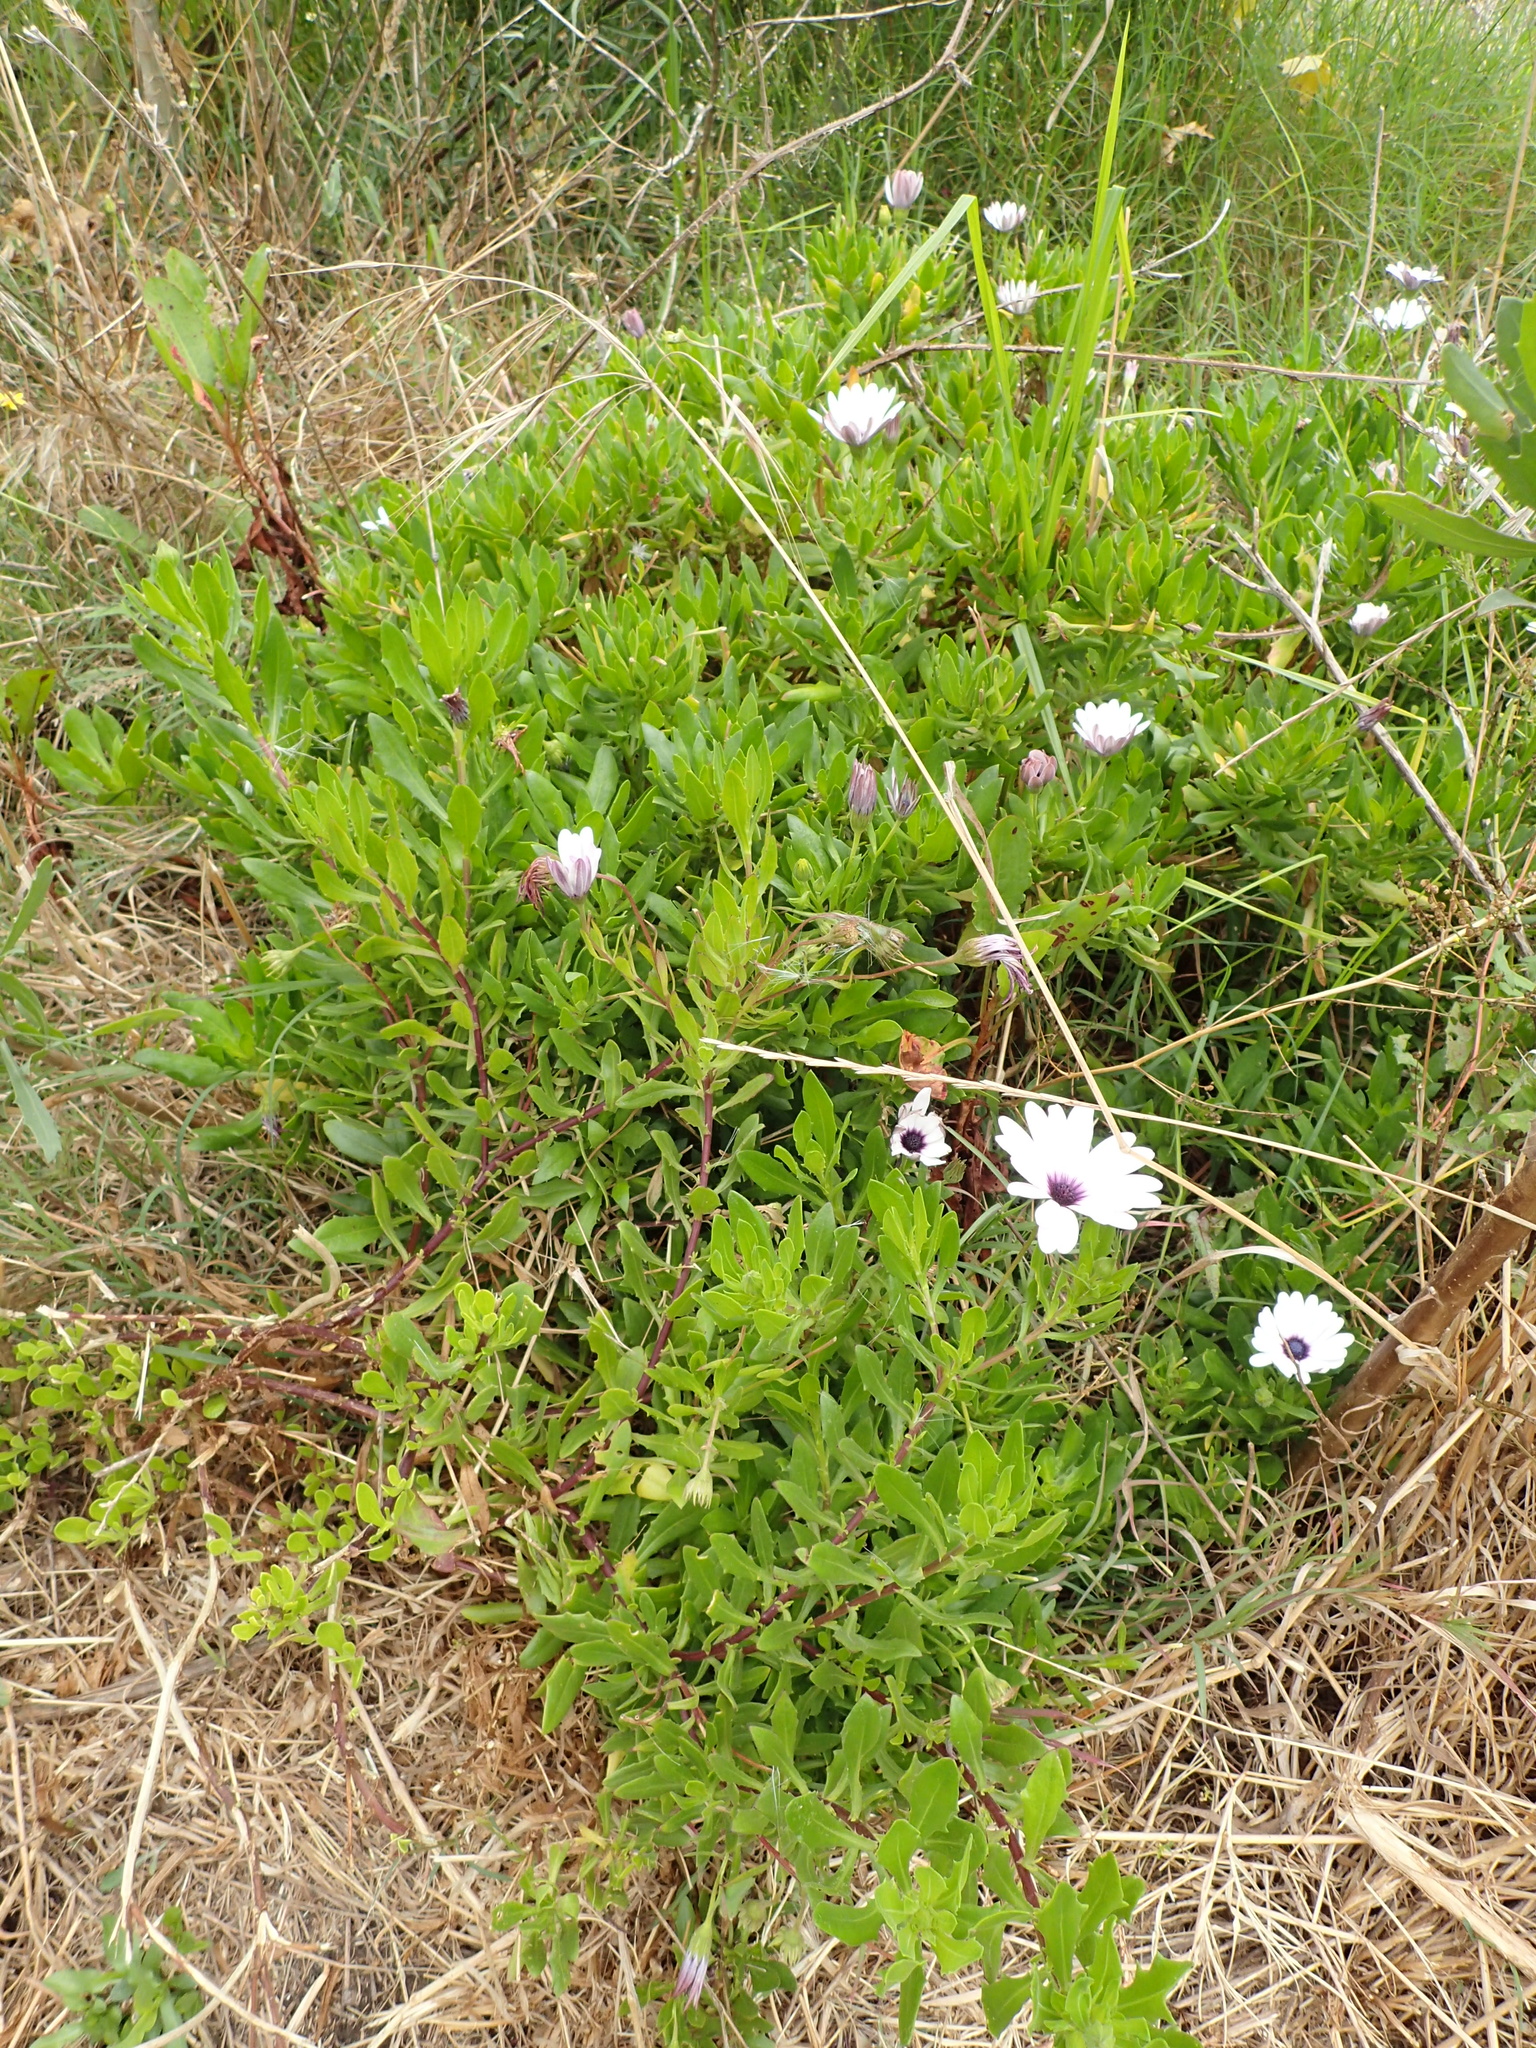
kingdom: Plantae
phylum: Tracheophyta
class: Magnoliopsida
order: Asterales
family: Asteraceae
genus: Dimorphotheca
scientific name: Dimorphotheca ecklonis
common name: Vanstaden's river daisy
